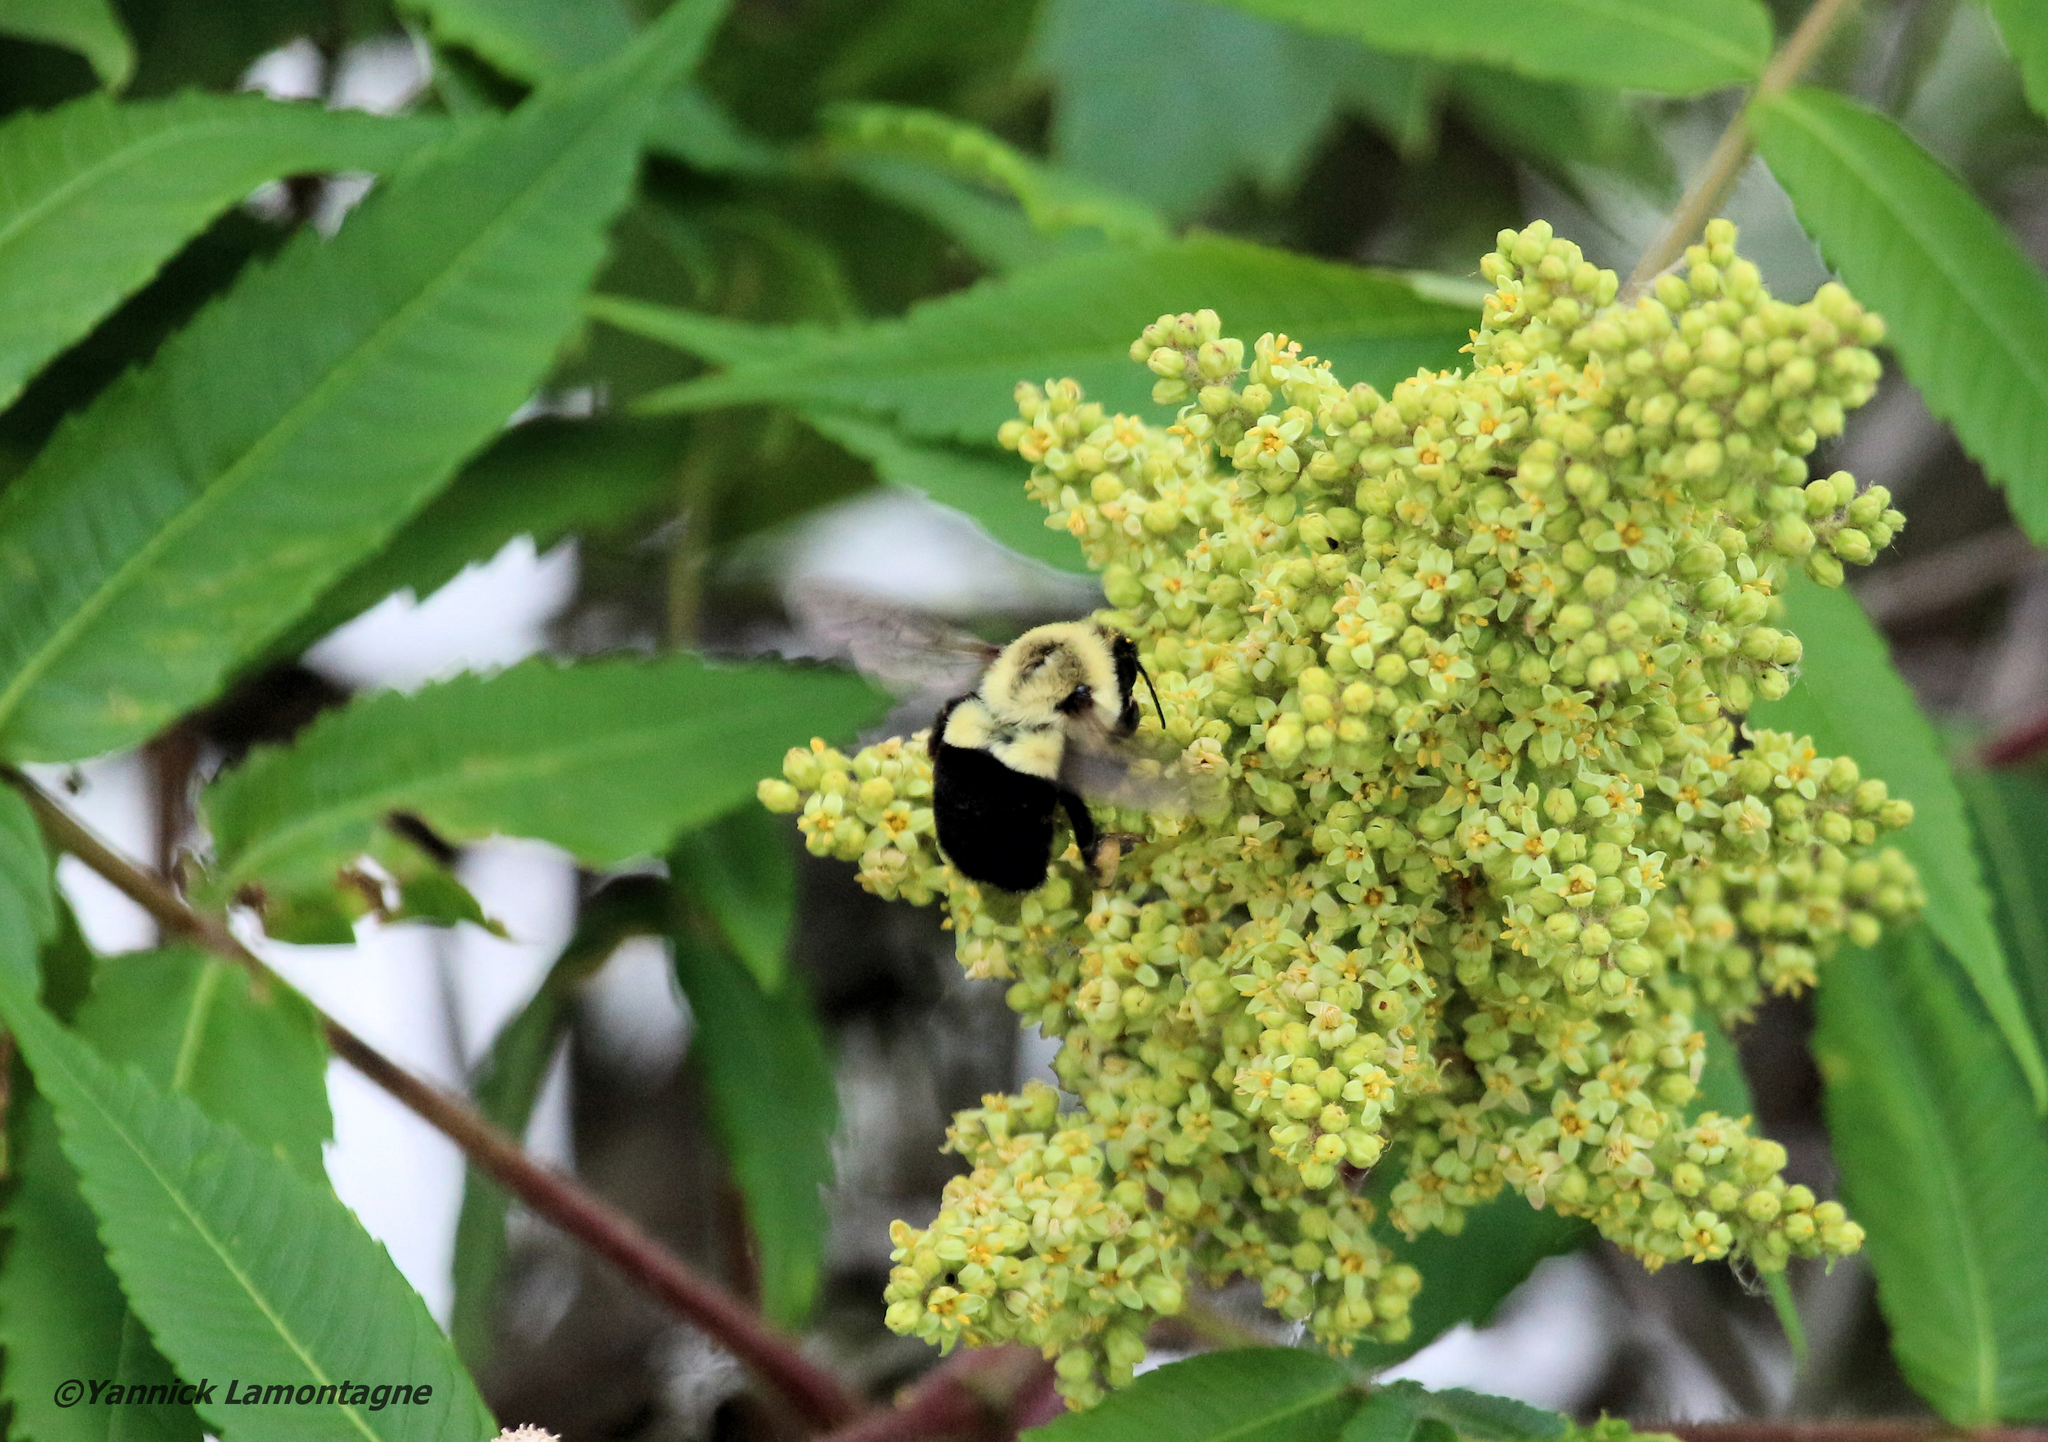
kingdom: Animalia
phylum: Arthropoda
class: Insecta
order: Hymenoptera
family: Apidae
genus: Bombus
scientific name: Bombus impatiens
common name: Common eastern bumble bee
